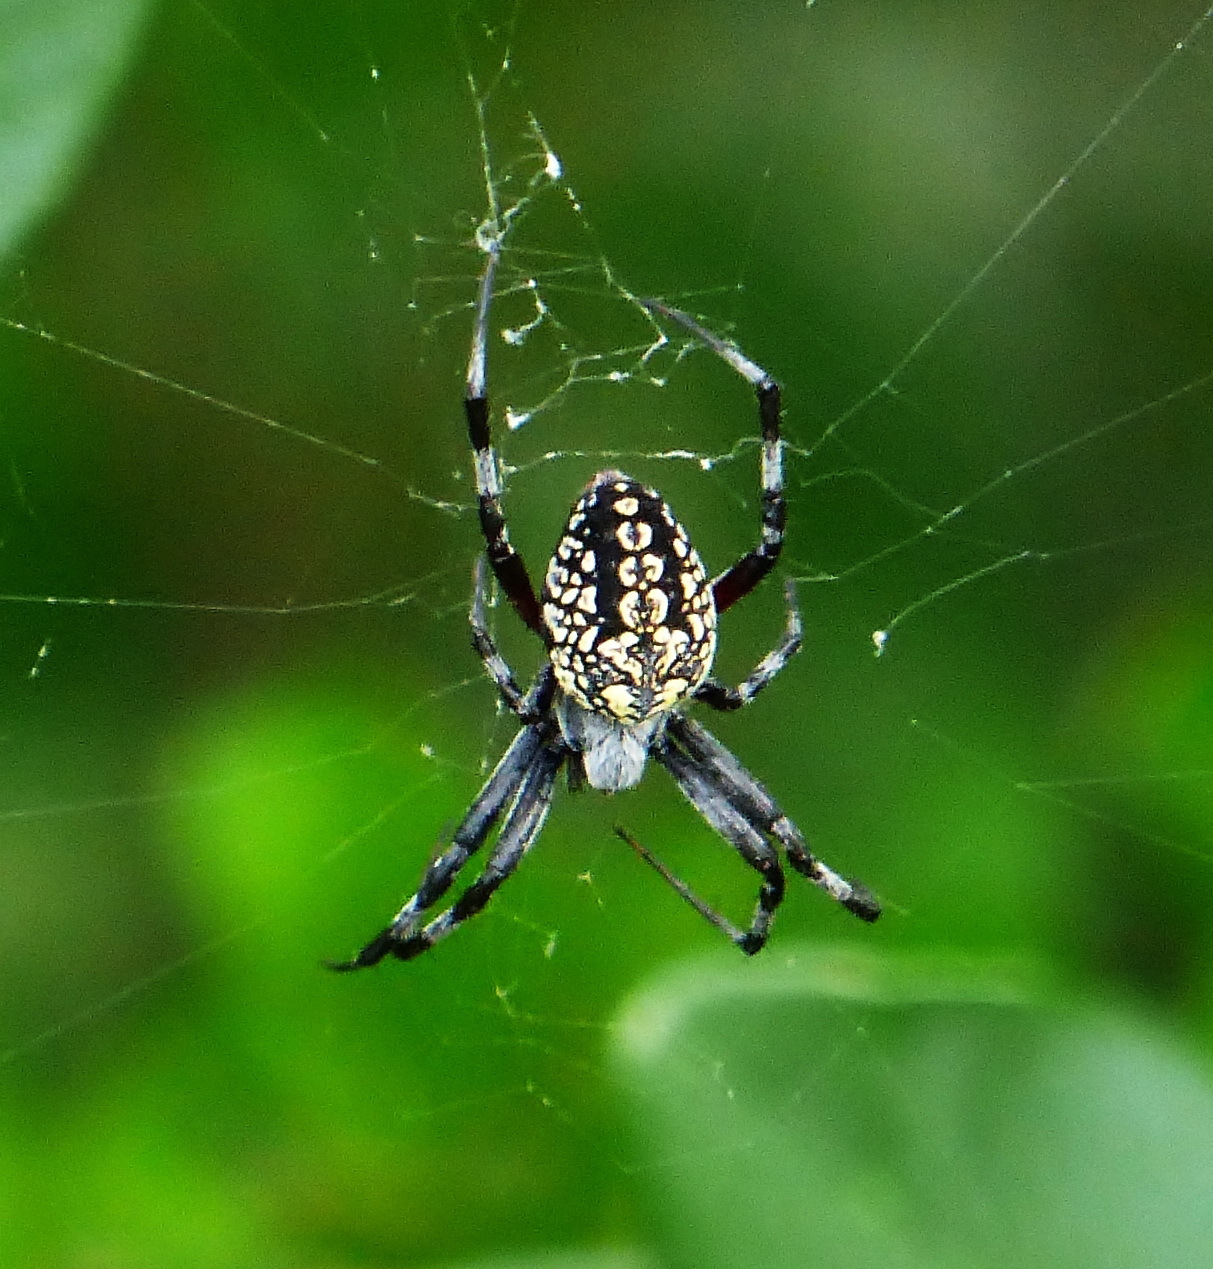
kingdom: Animalia
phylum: Arthropoda
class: Arachnida
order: Araneae
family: Araneidae
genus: Neoscona
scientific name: Neoscona oaxacensis
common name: Orb weavers
